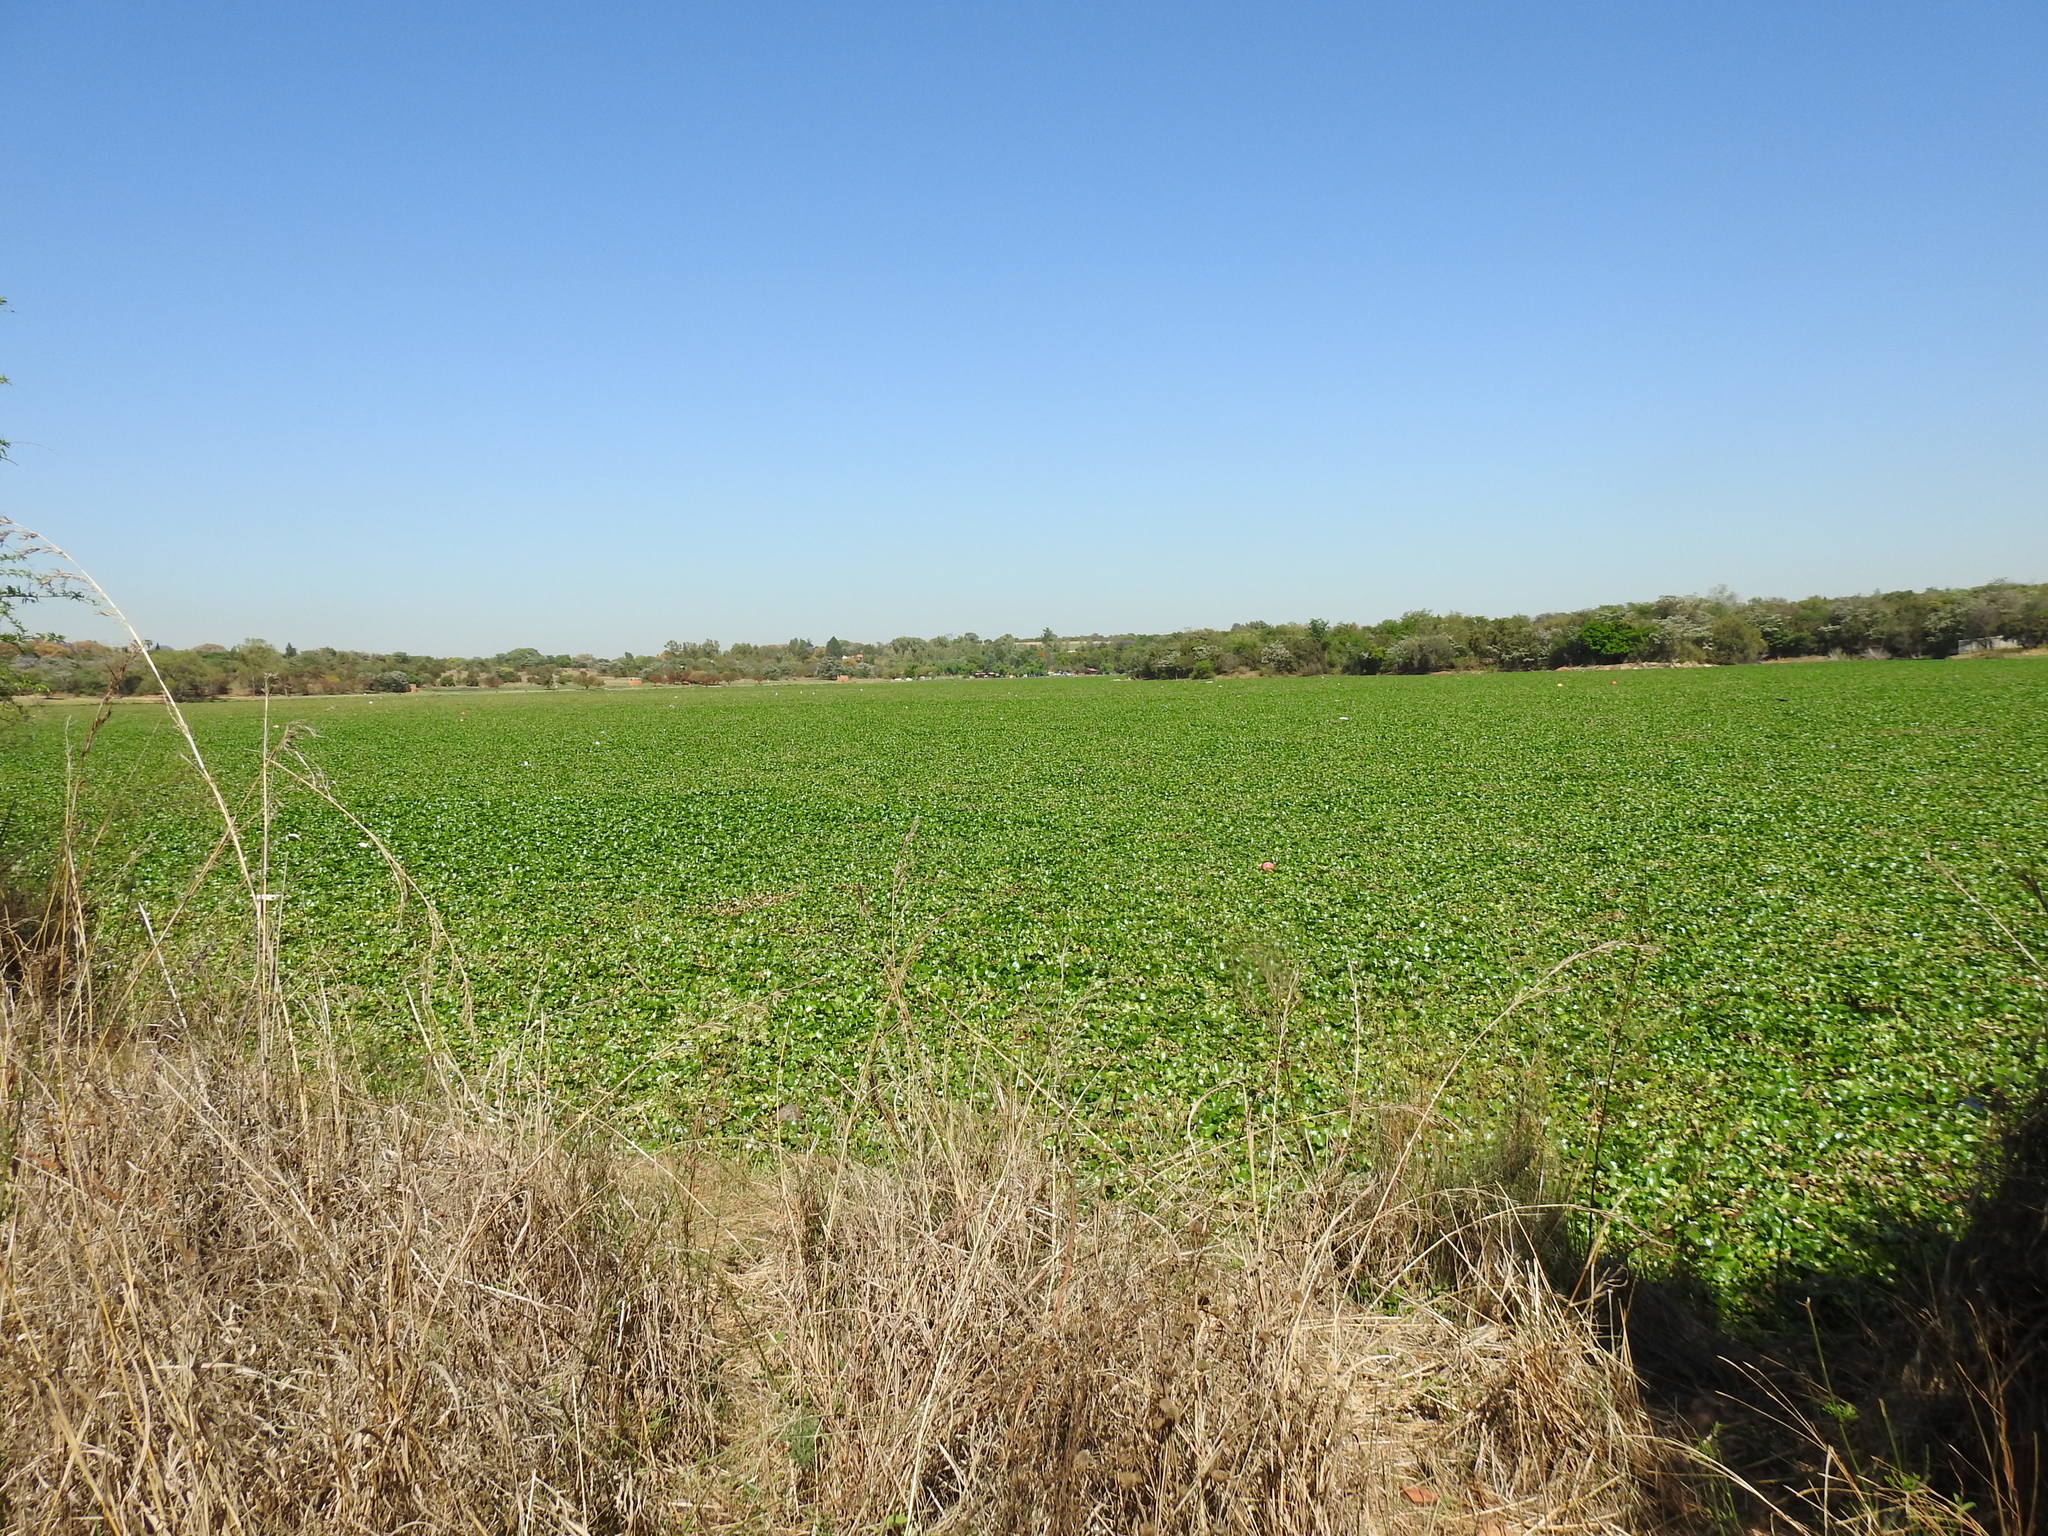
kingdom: Plantae
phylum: Tracheophyta
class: Liliopsida
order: Commelinales
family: Pontederiaceae
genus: Pontederia
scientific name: Pontederia crassipes
